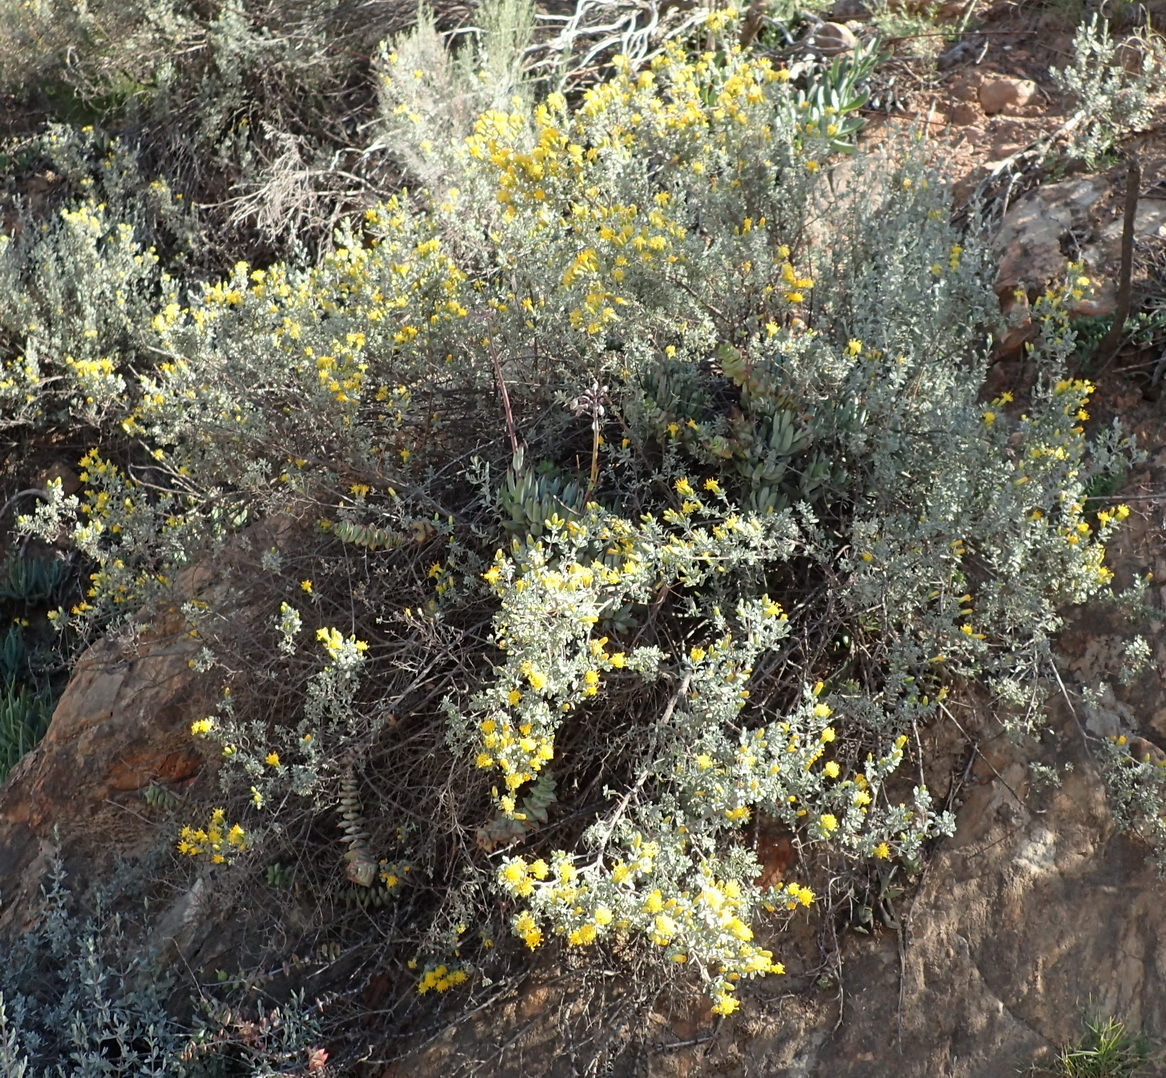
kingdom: Plantae
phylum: Tracheophyta
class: Magnoliopsida
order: Asterales
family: Asteraceae
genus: Pteronia
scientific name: Pteronia incana
